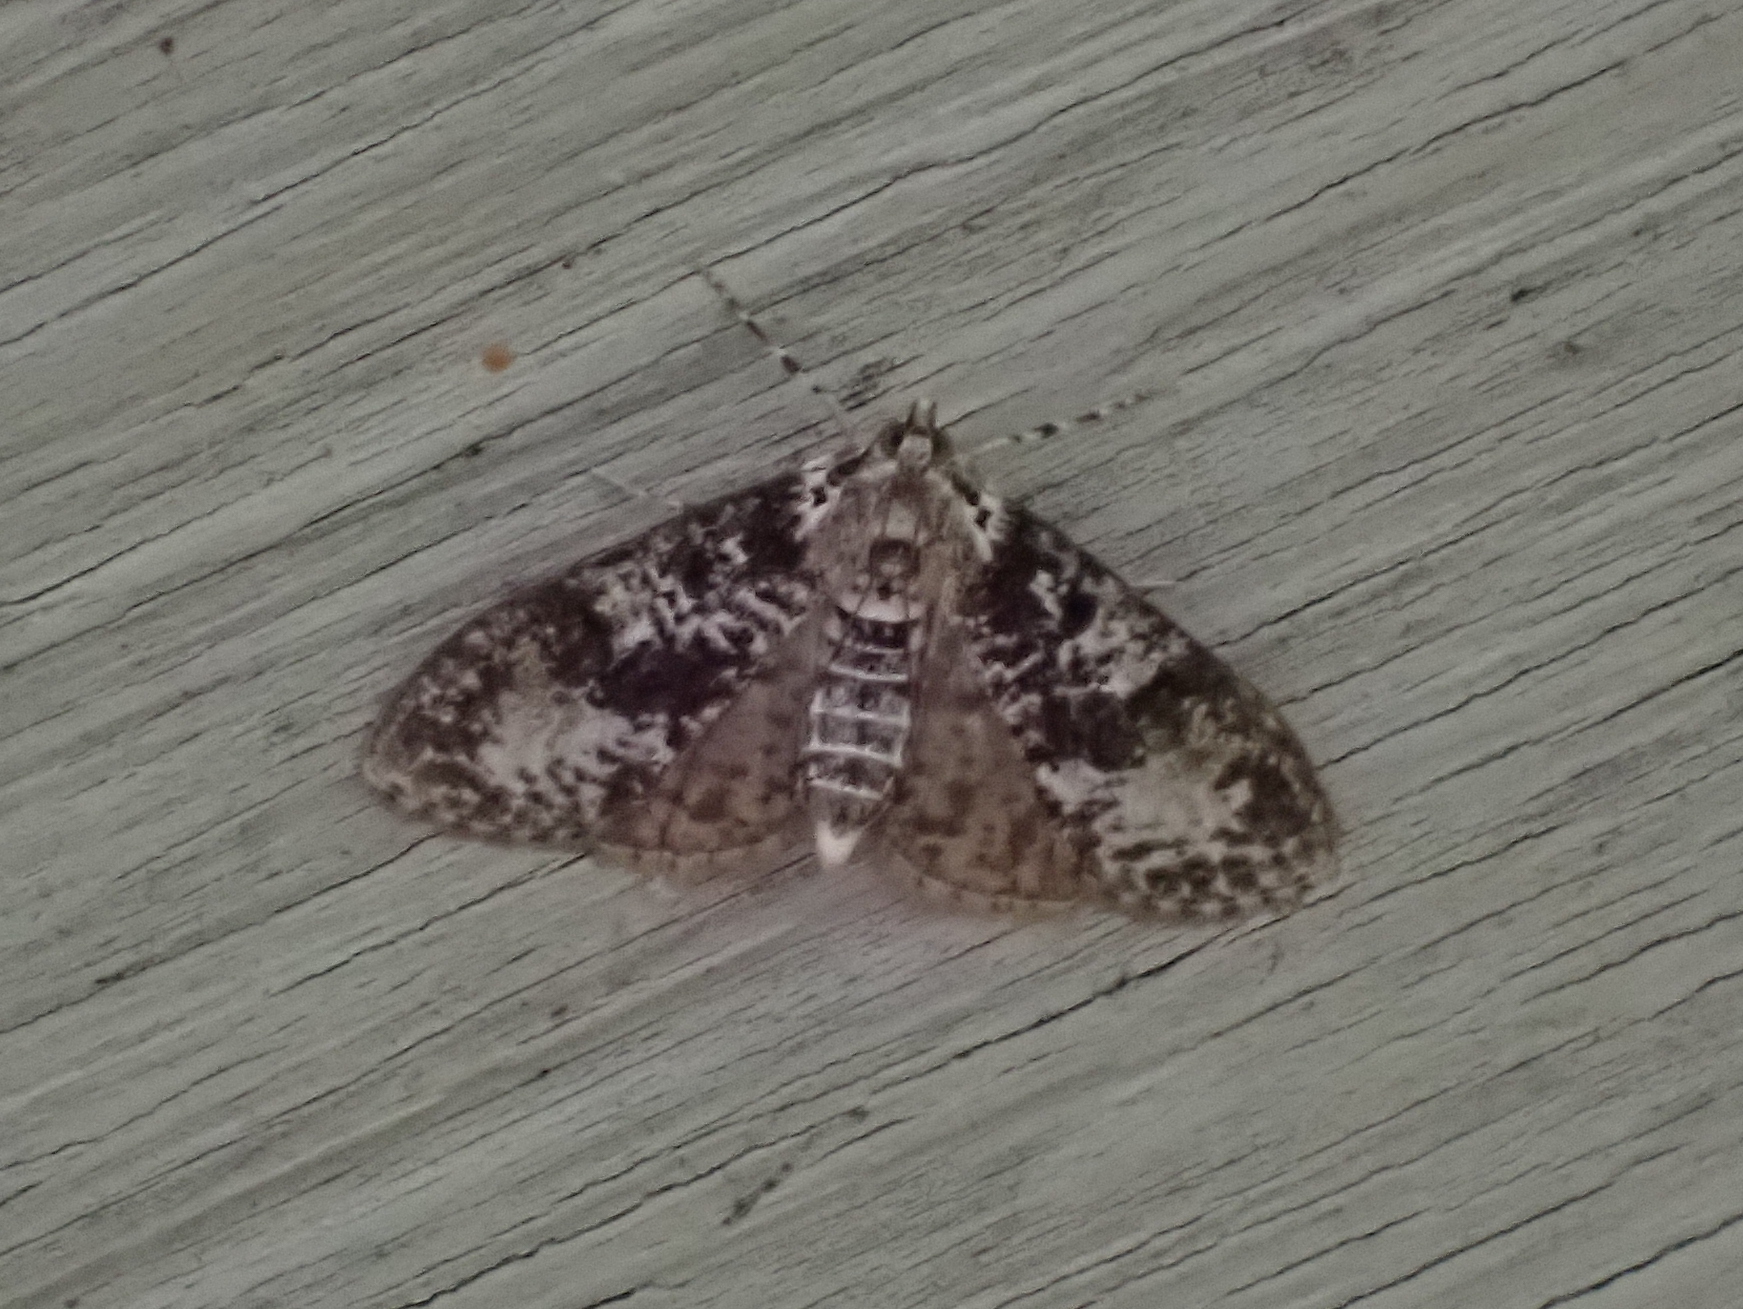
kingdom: Animalia
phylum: Arthropoda
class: Insecta
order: Lepidoptera
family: Crambidae
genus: Palpita
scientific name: Palpita magniferalis
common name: Splendid palpita moth
